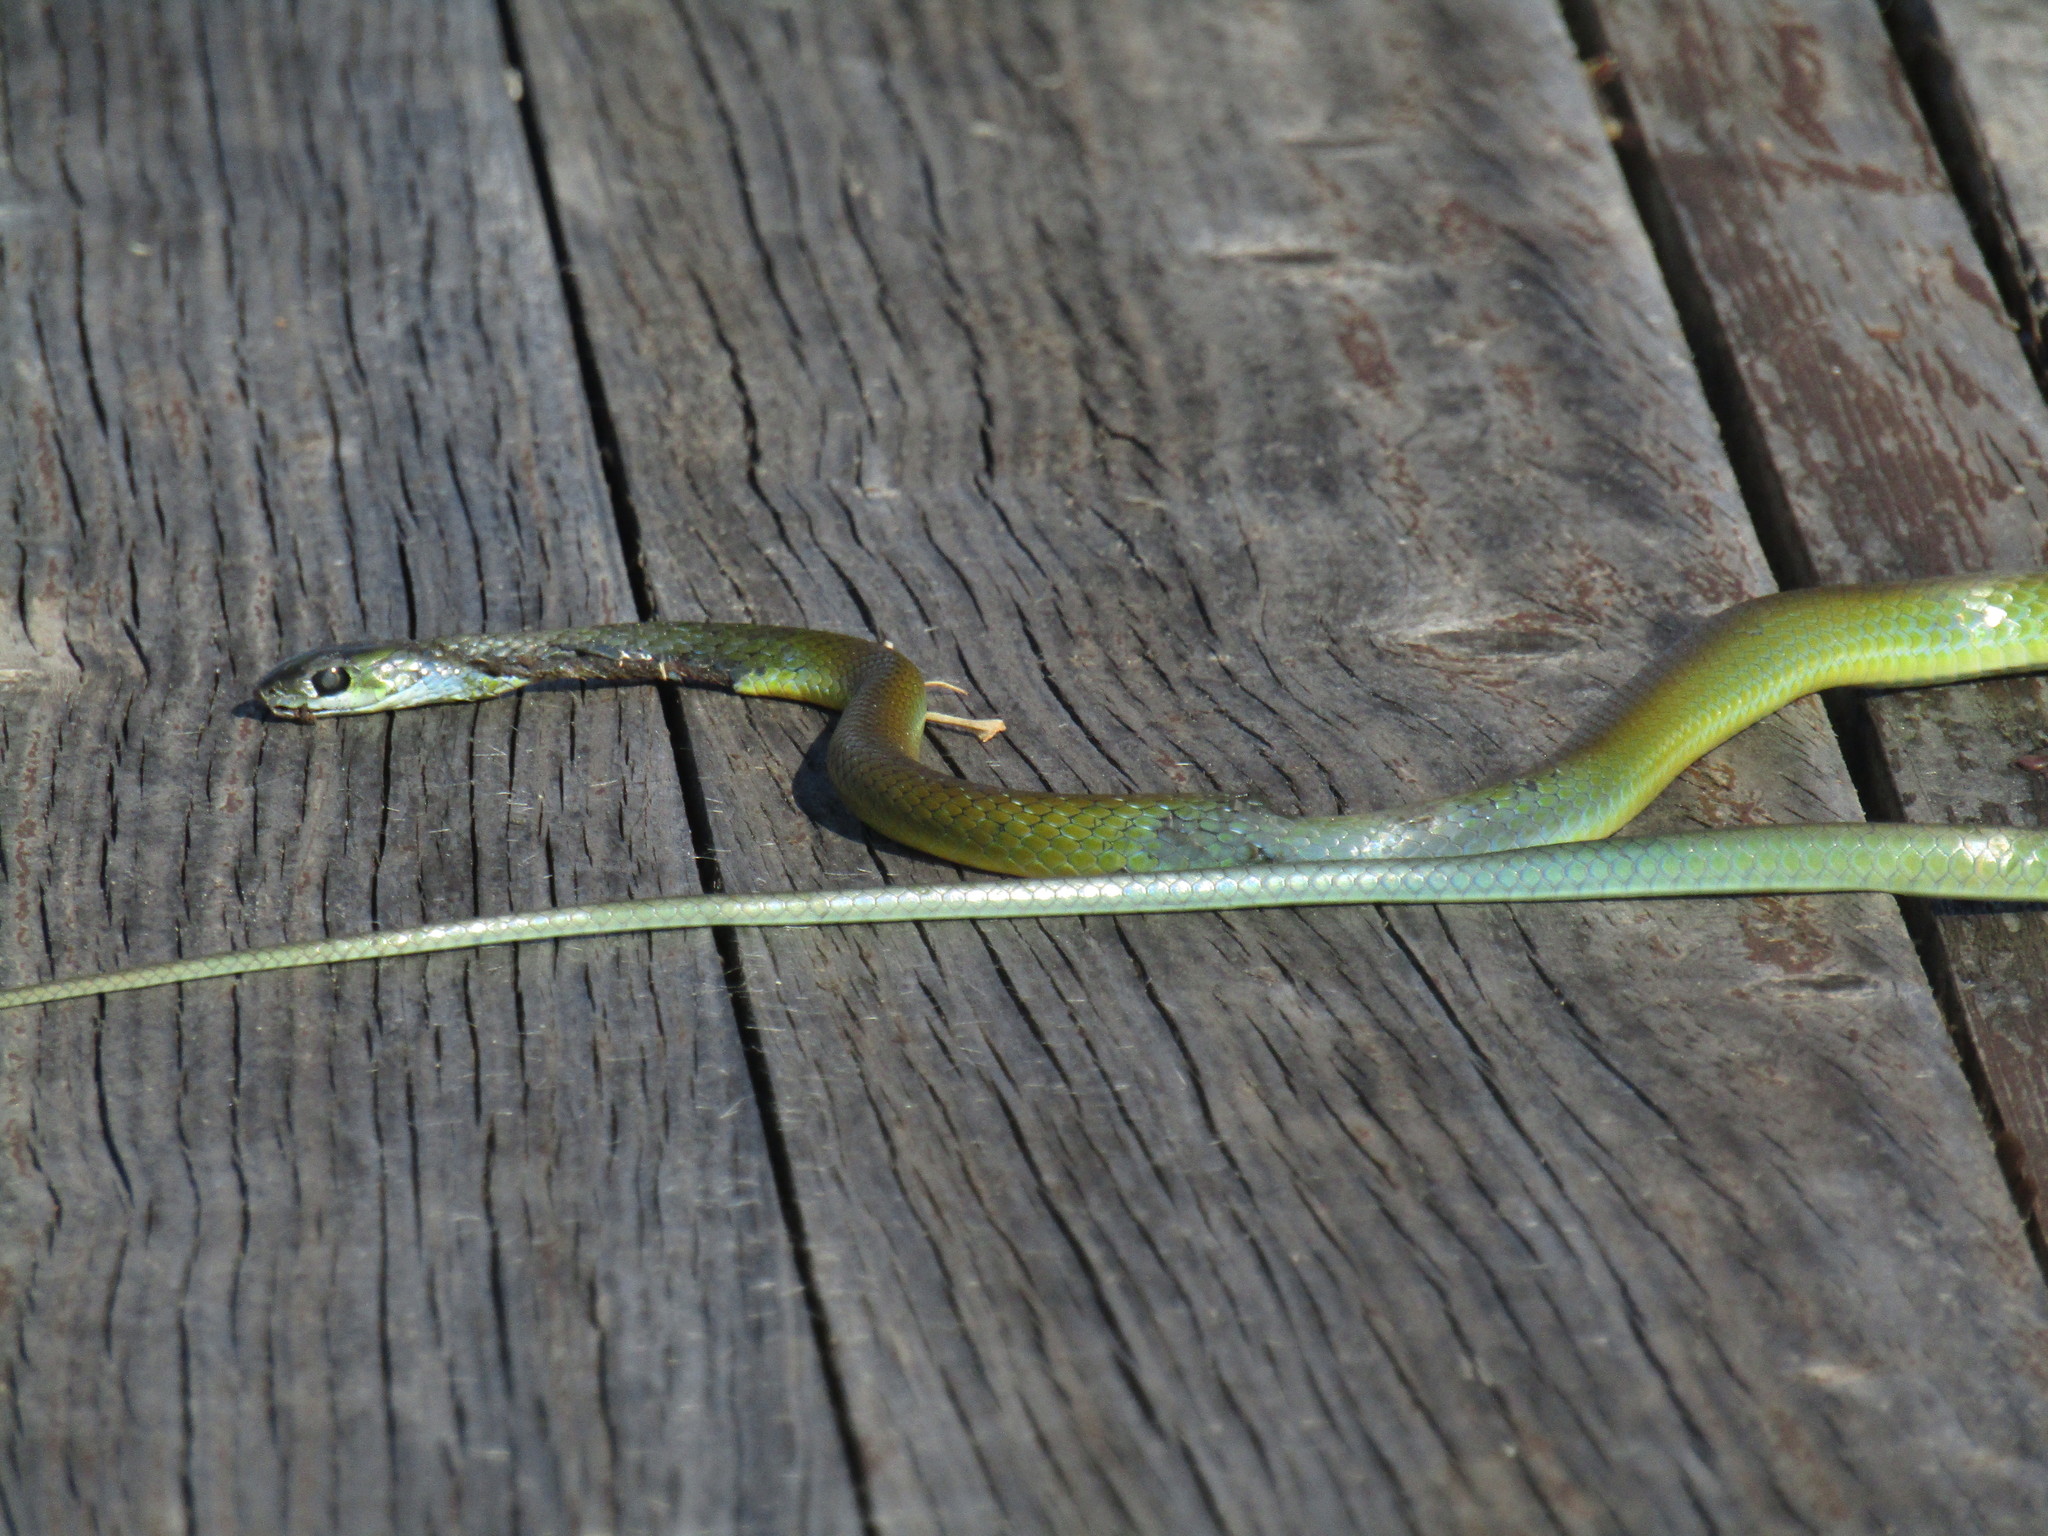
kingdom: Animalia
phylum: Chordata
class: Squamata
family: Colubridae
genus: Philothamnus
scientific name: Philothamnus occidentalis
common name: Western natal green snake
